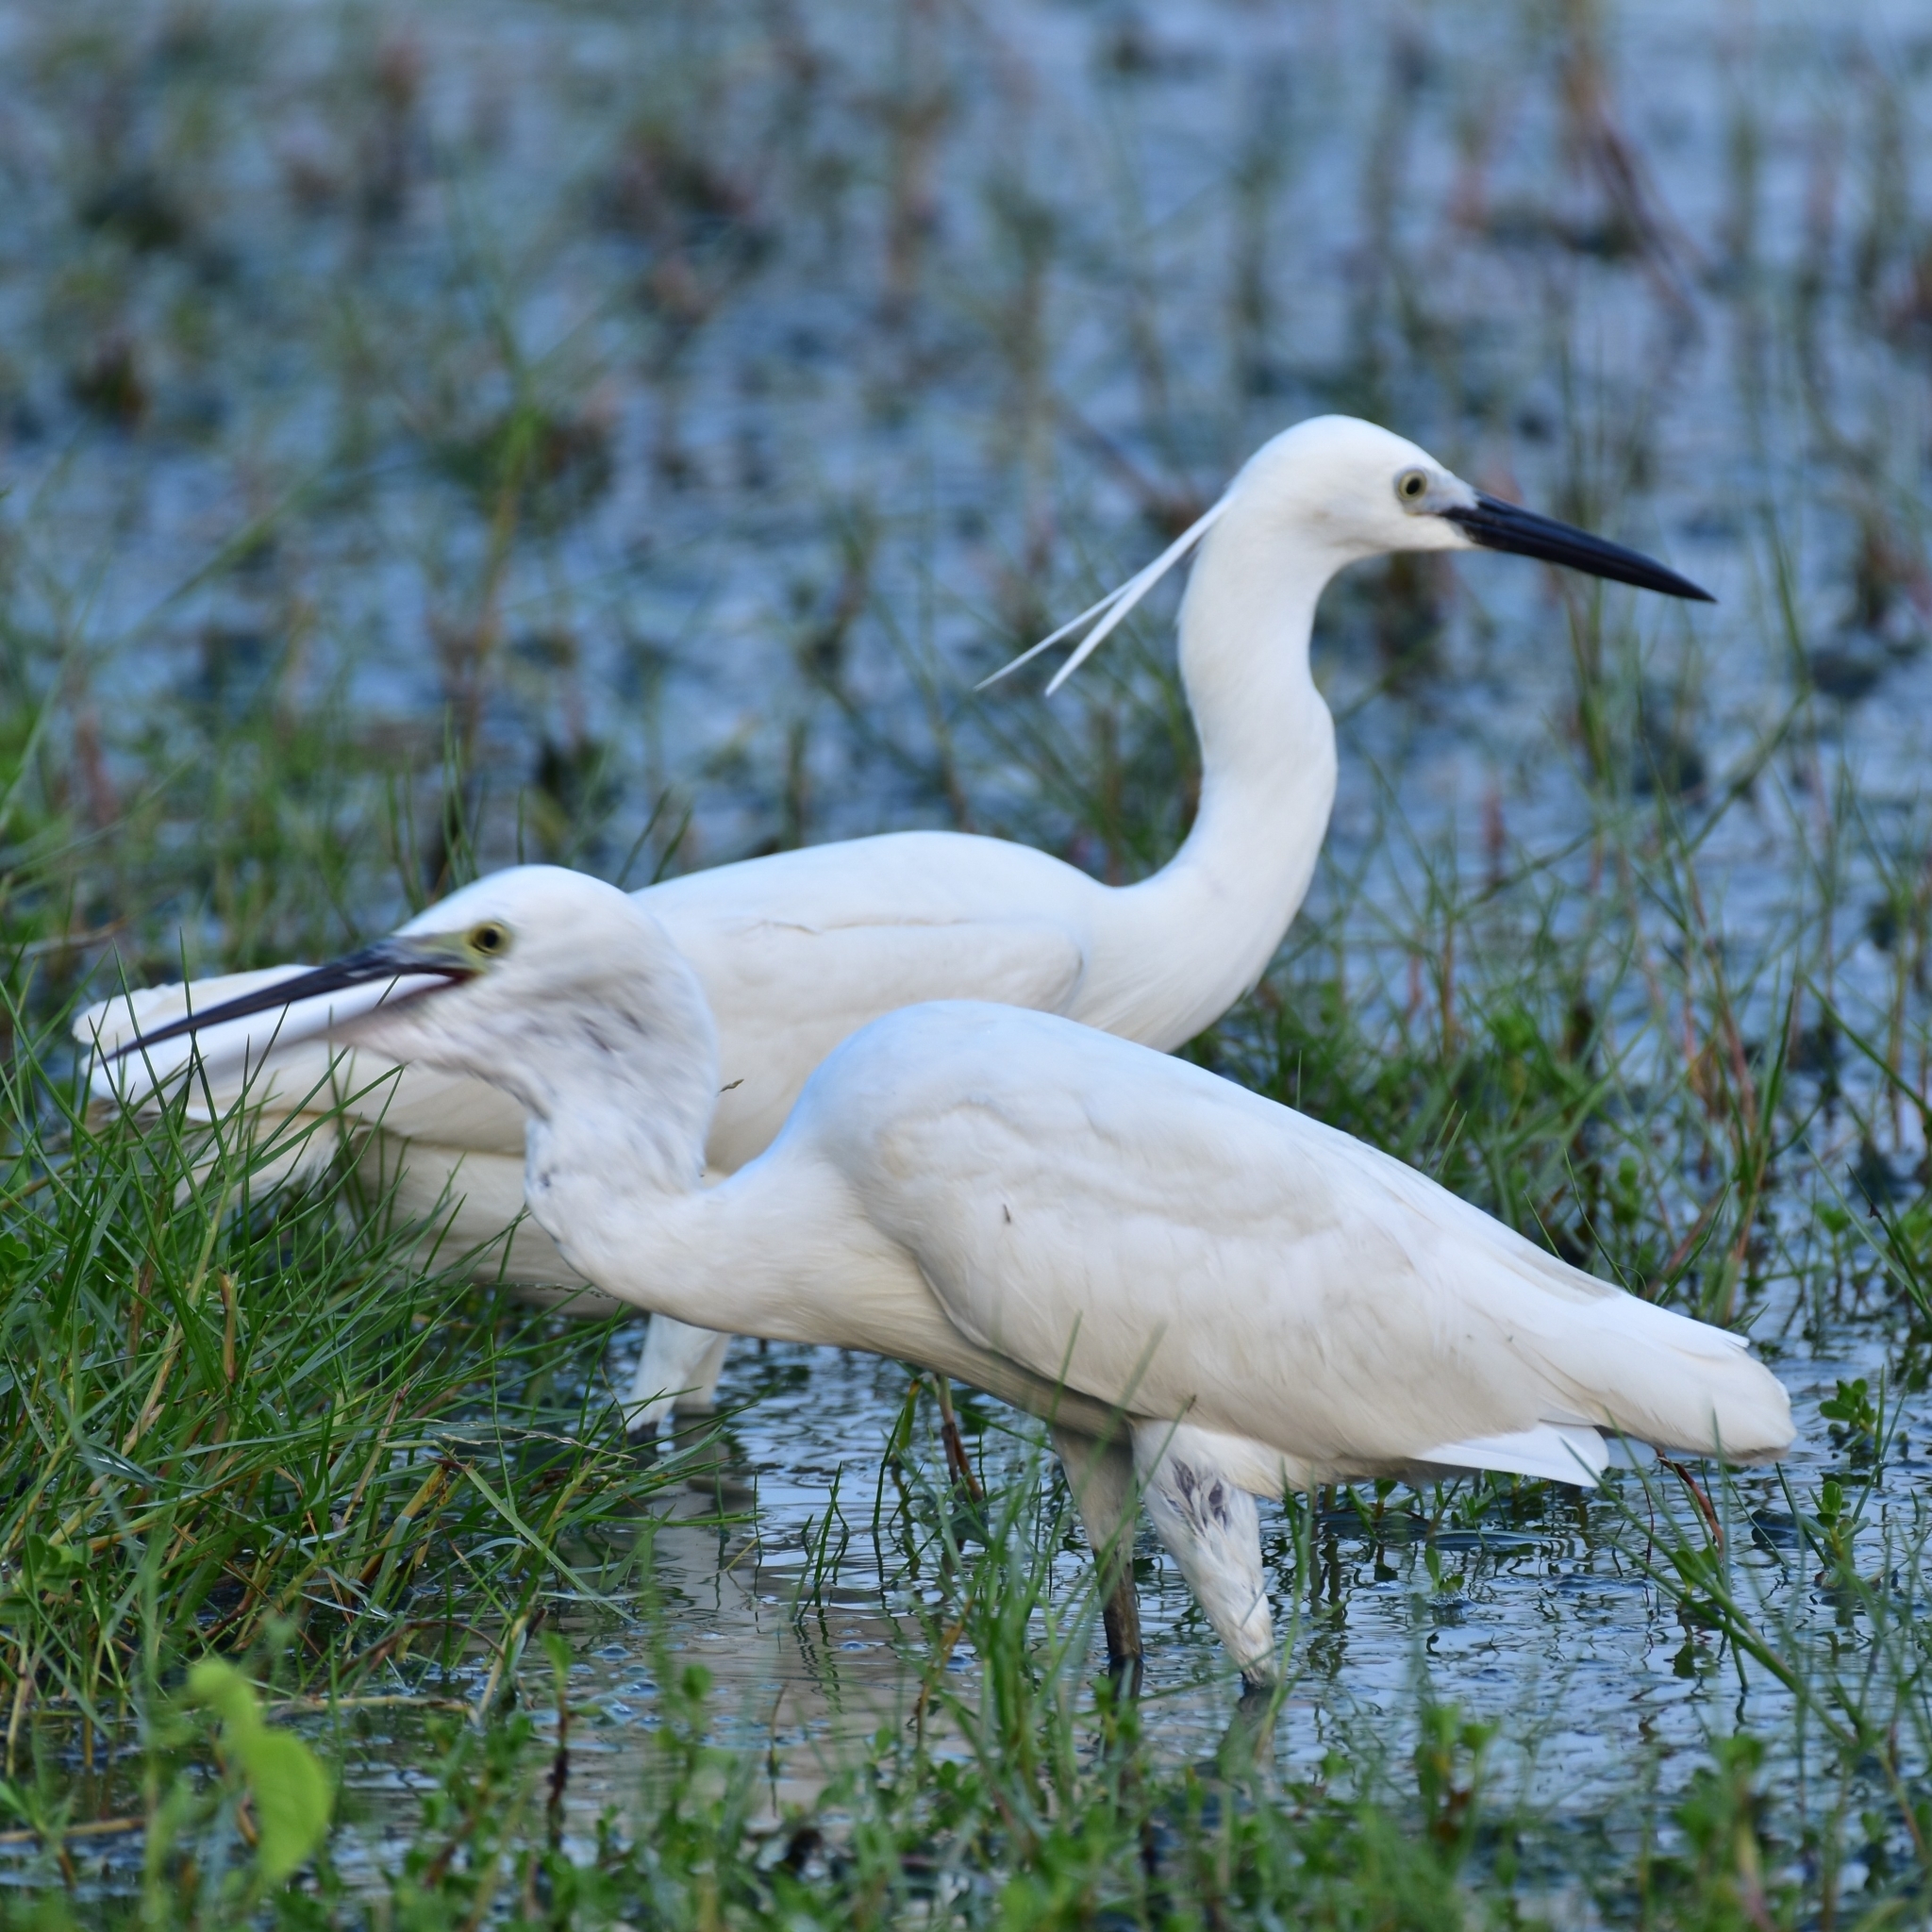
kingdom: Animalia
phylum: Chordata
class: Aves
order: Pelecaniformes
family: Ardeidae
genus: Egretta
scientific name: Egretta garzetta
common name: Little egret
